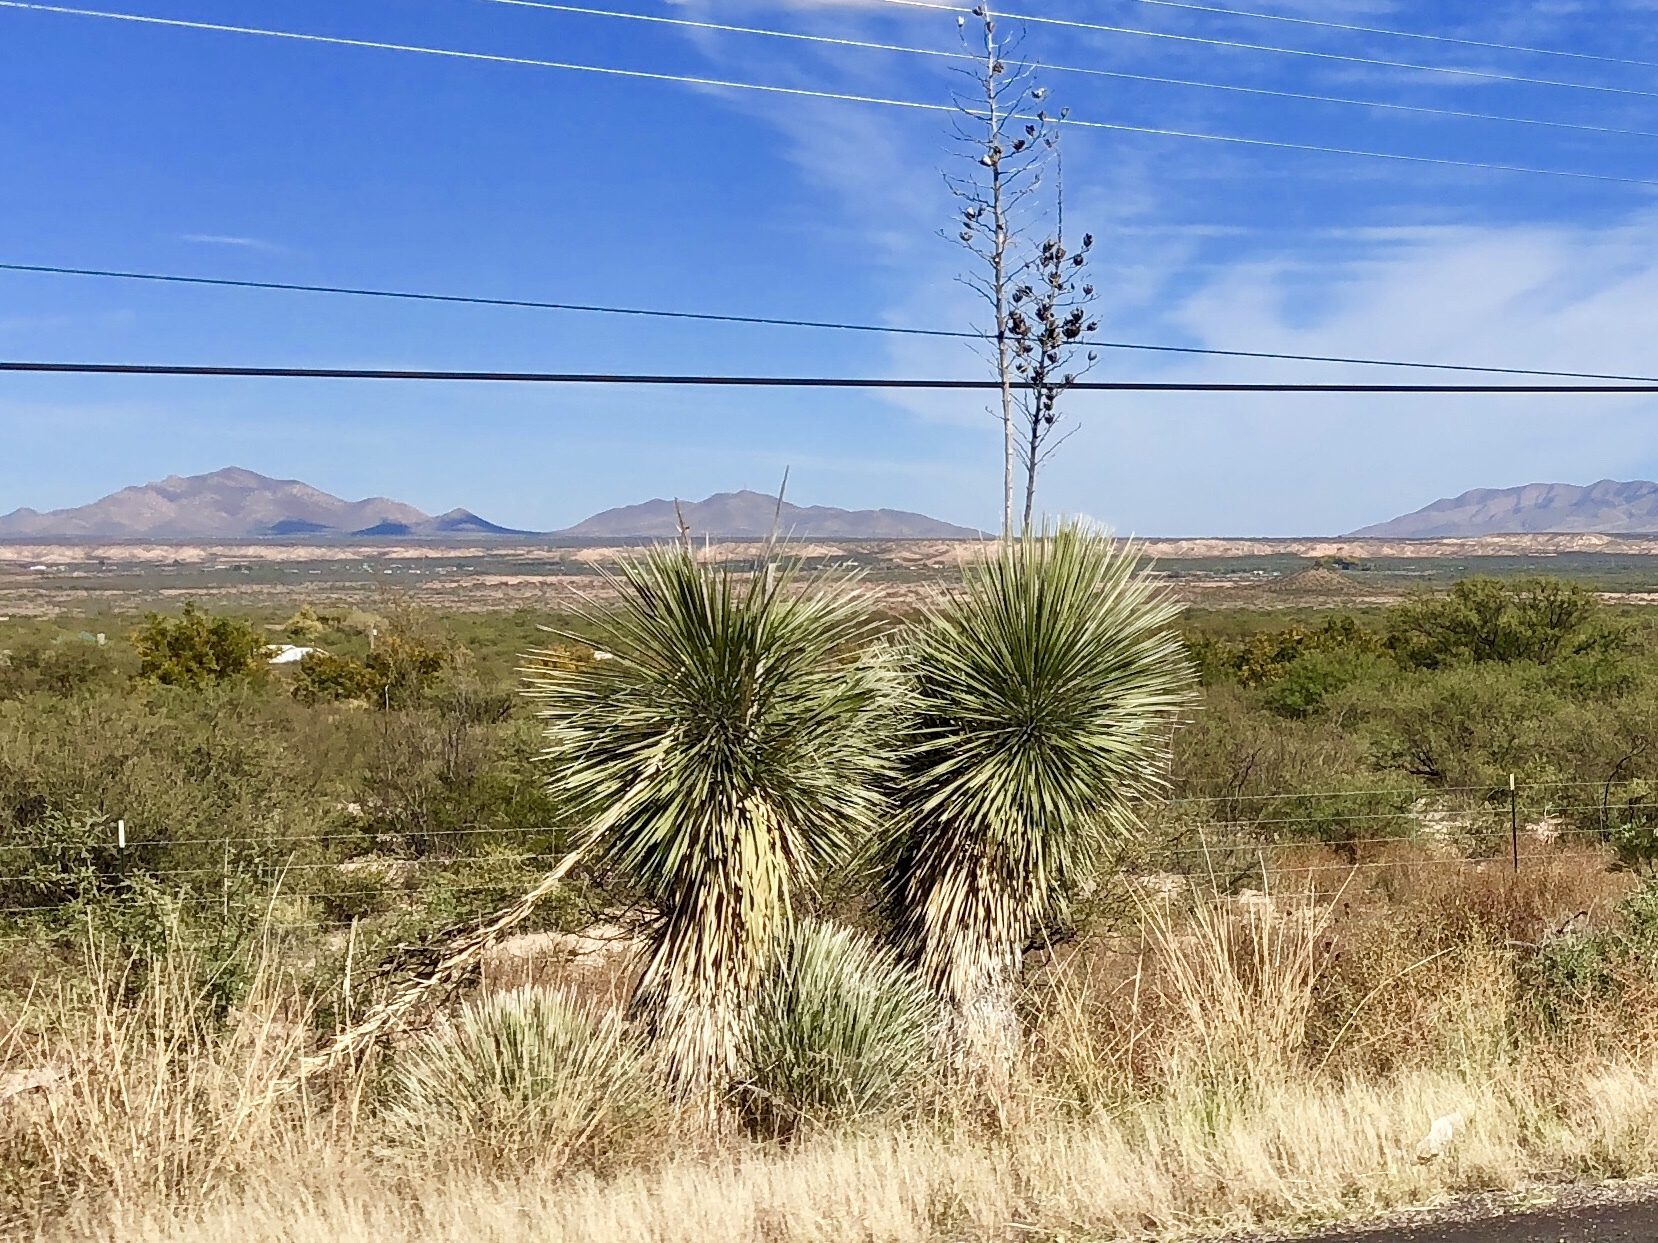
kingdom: Plantae
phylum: Tracheophyta
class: Liliopsida
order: Asparagales
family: Asparagaceae
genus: Yucca
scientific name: Yucca elata
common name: Palmella
